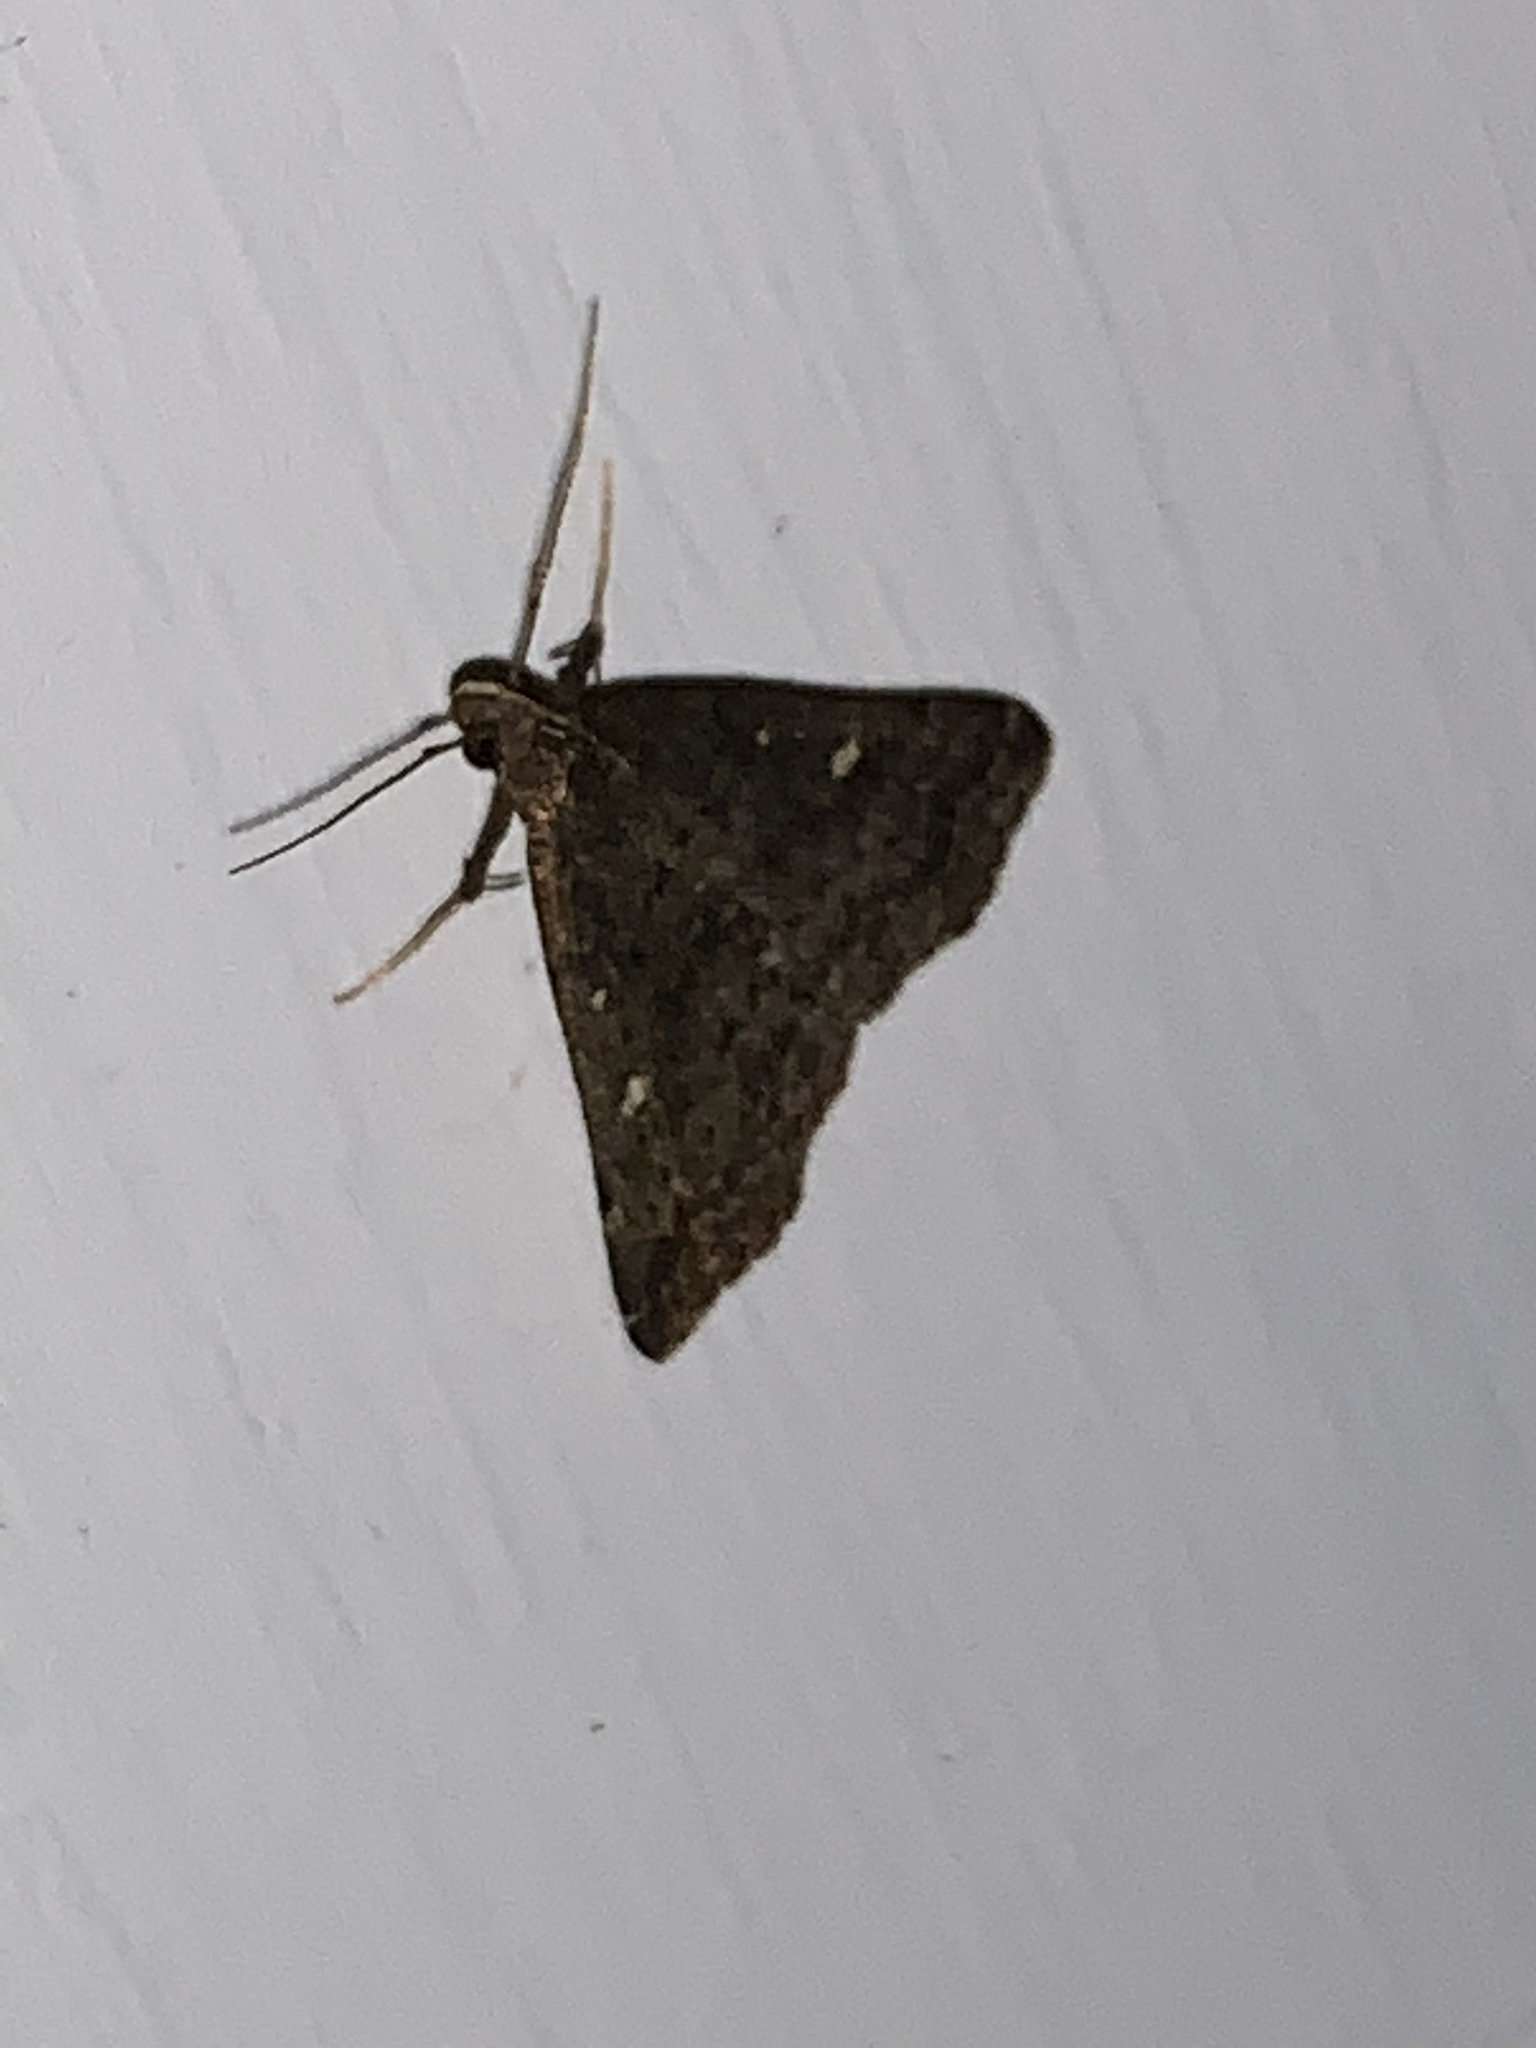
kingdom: Animalia
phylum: Arthropoda
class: Insecta
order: Lepidoptera
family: Erebidae
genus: Tetanolita
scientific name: Tetanolita mynesalis
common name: Smoky tetanolita moth
